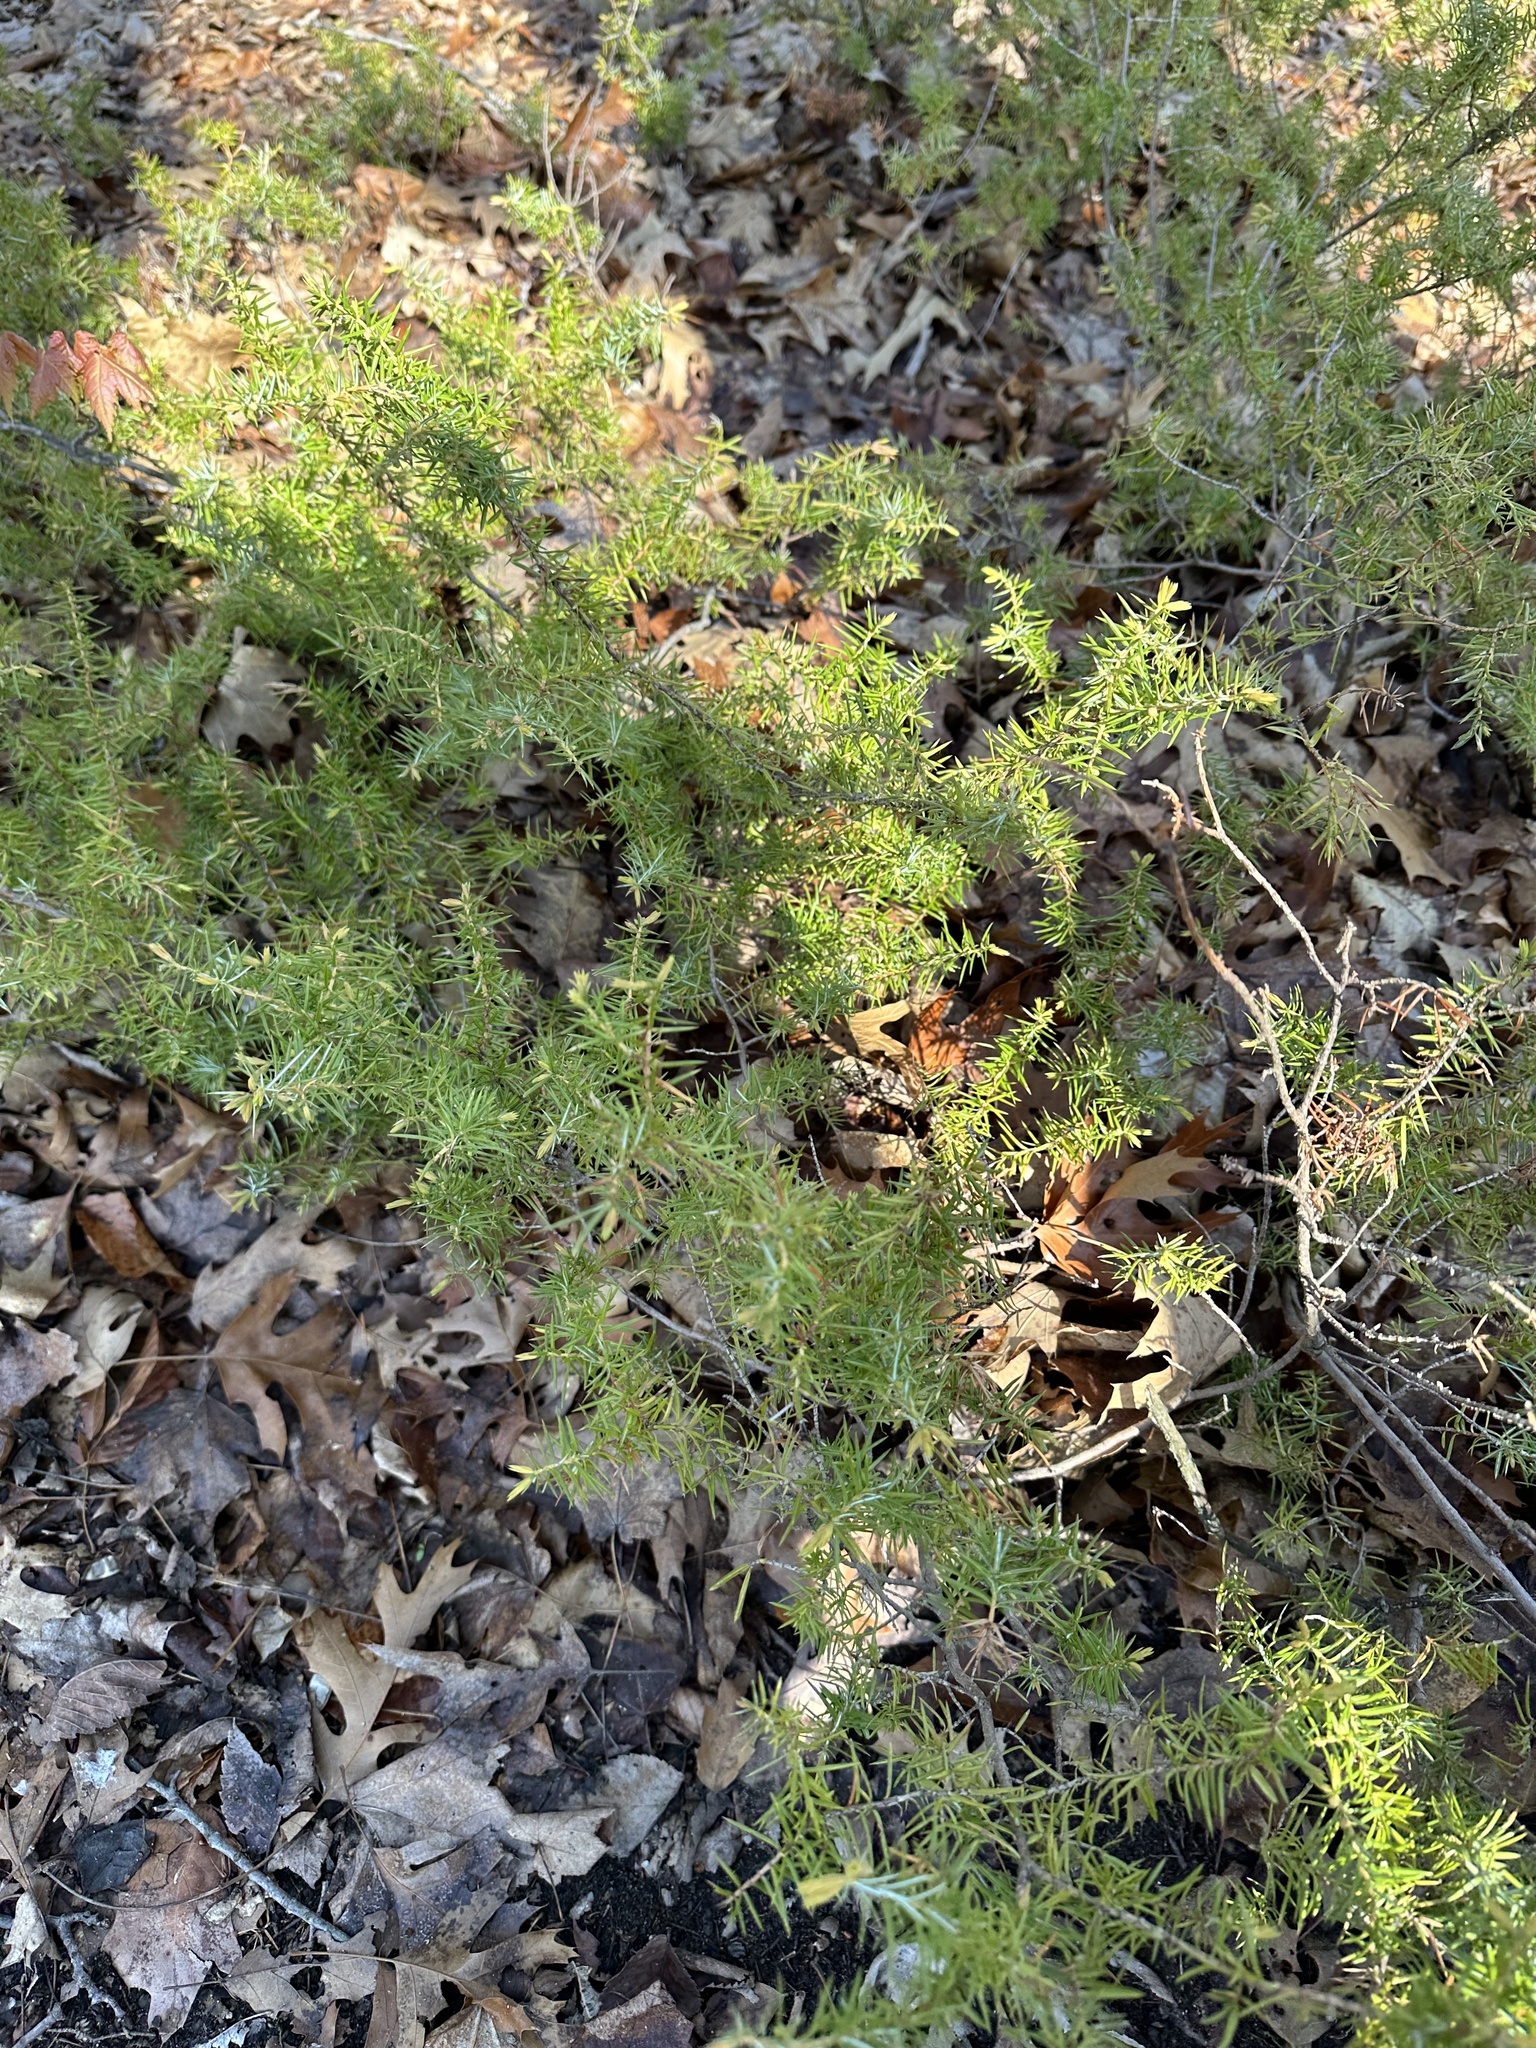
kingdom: Plantae
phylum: Tracheophyta
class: Pinopsida
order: Pinales
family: Cupressaceae
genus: Juniperus
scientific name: Juniperus communis
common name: Common juniper
